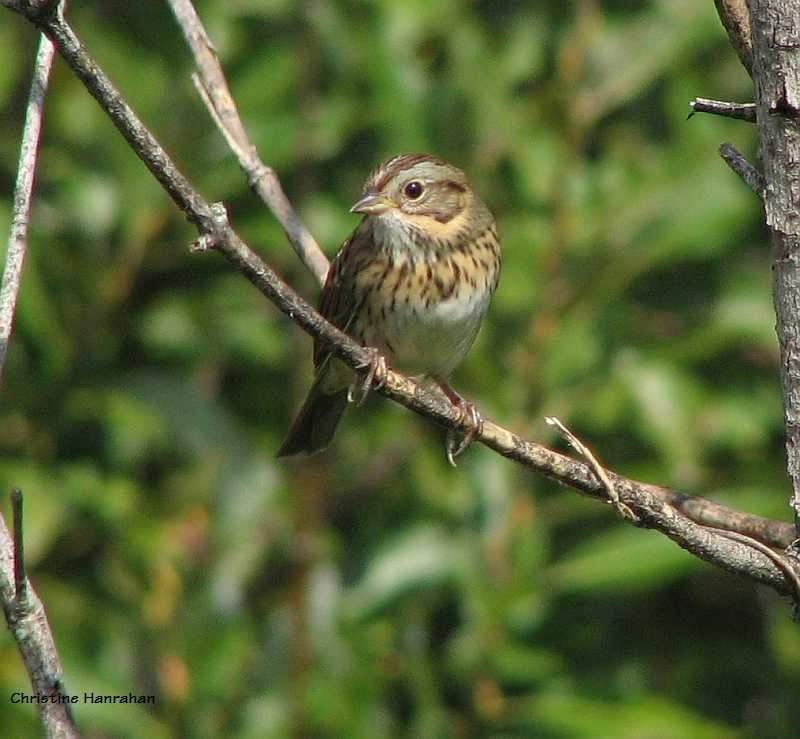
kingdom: Animalia
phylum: Chordata
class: Aves
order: Passeriformes
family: Passerellidae
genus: Melospiza
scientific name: Melospiza lincolnii
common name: Lincoln's sparrow
